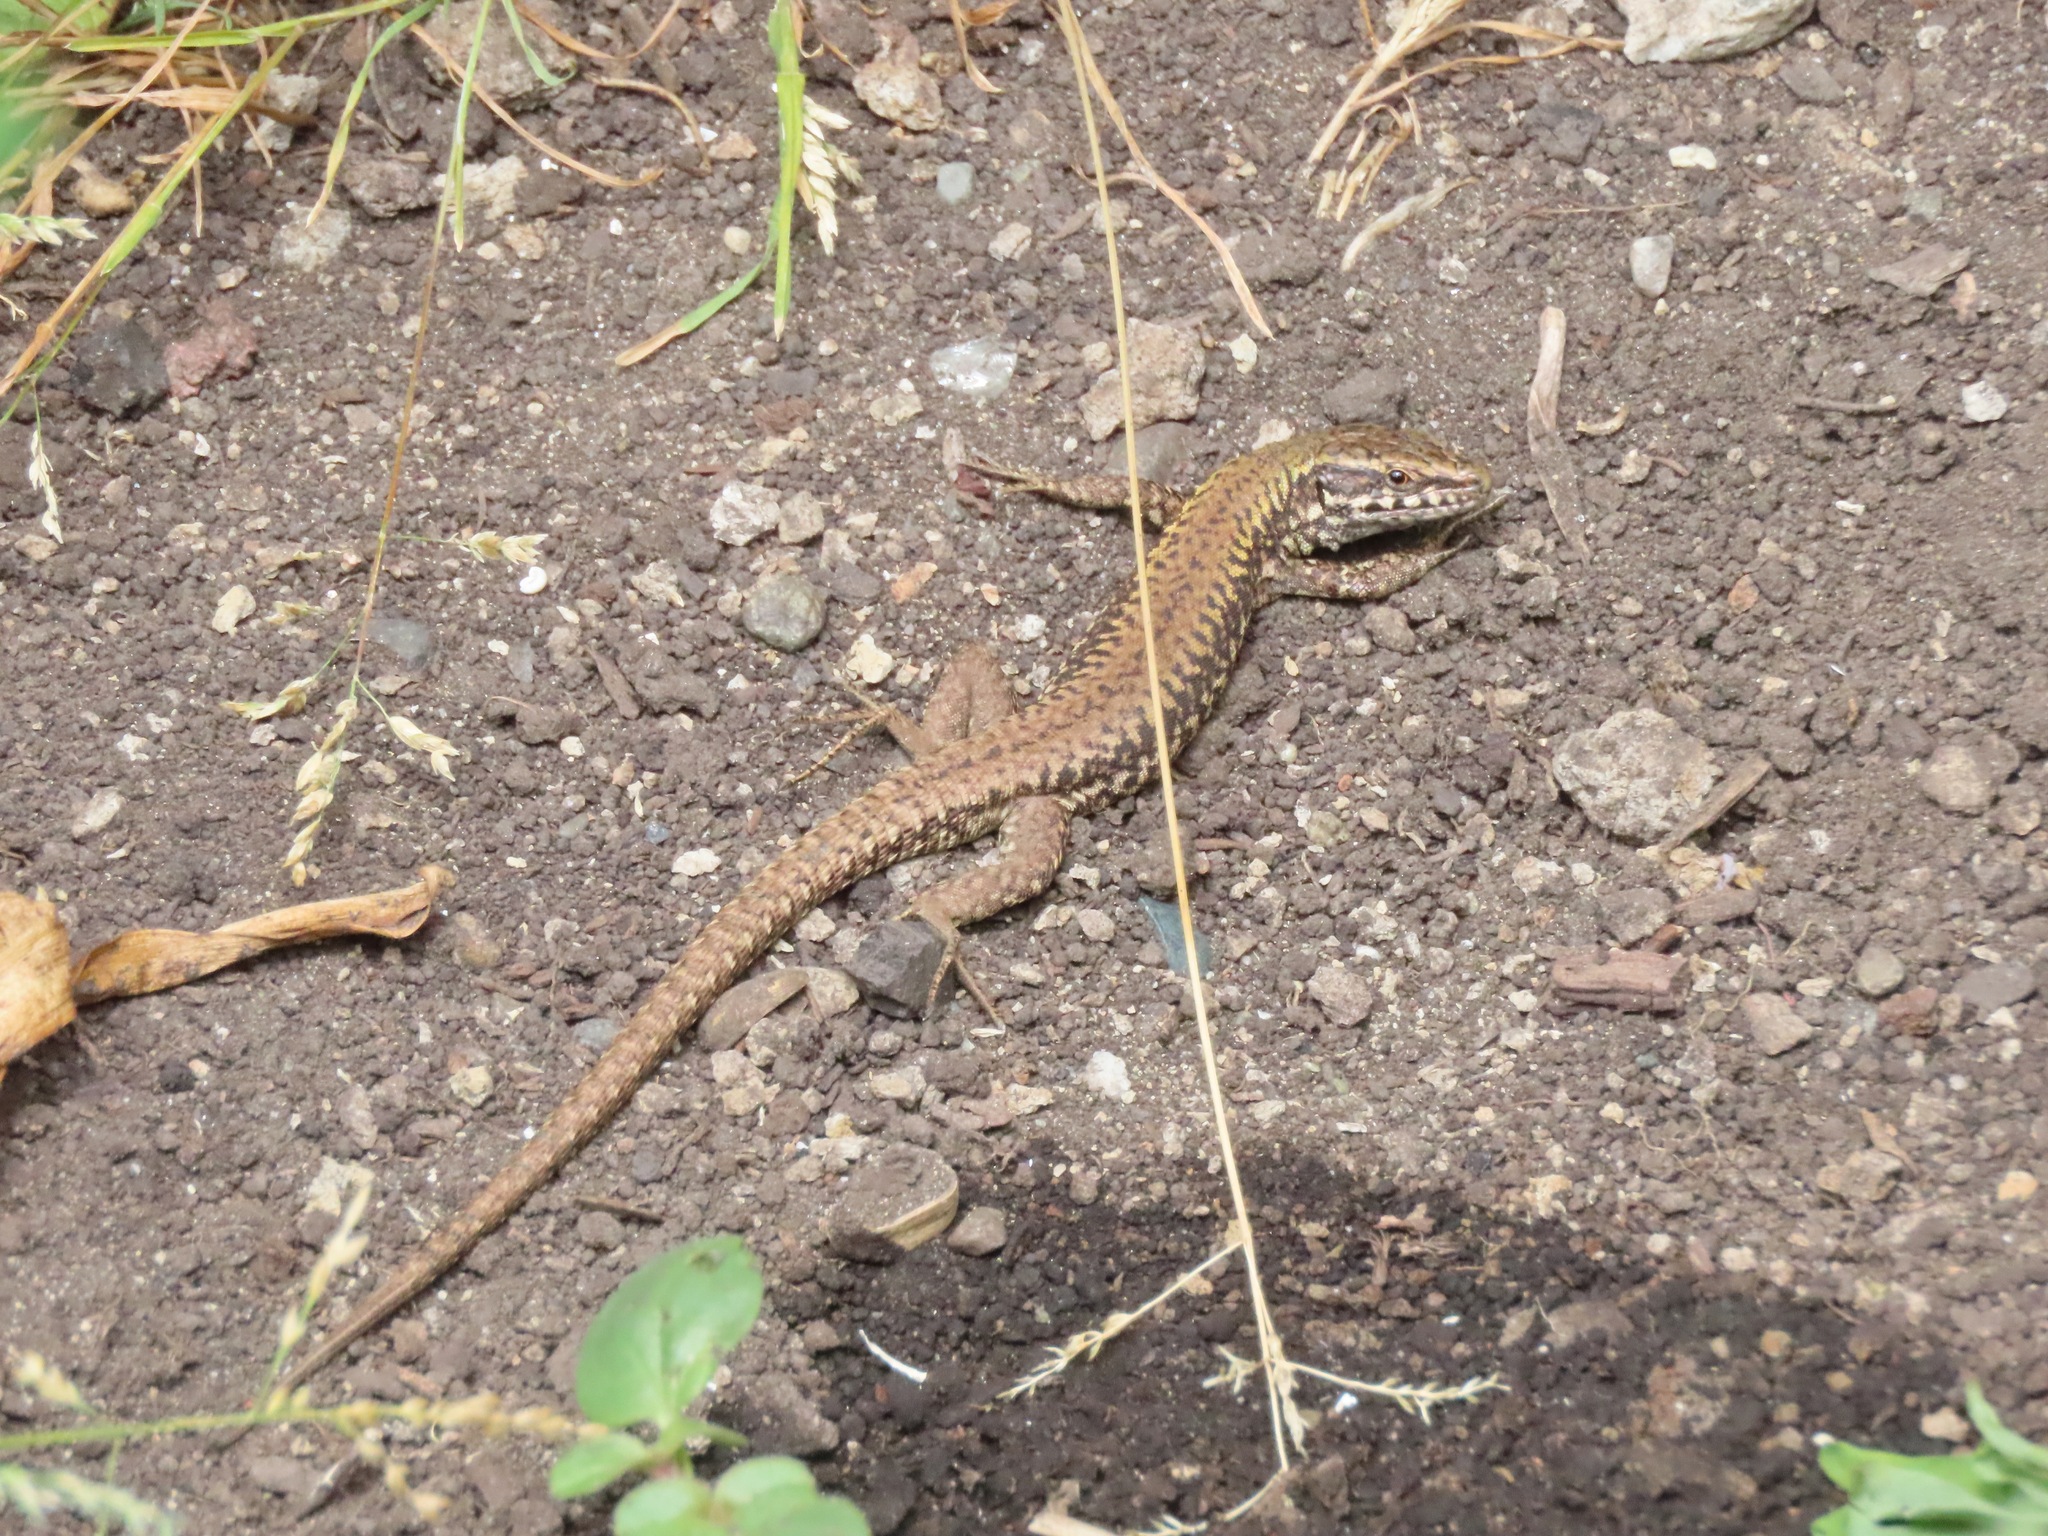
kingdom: Animalia
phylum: Chordata
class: Squamata
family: Lacertidae
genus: Podarcis
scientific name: Podarcis muralis
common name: Common wall lizard
